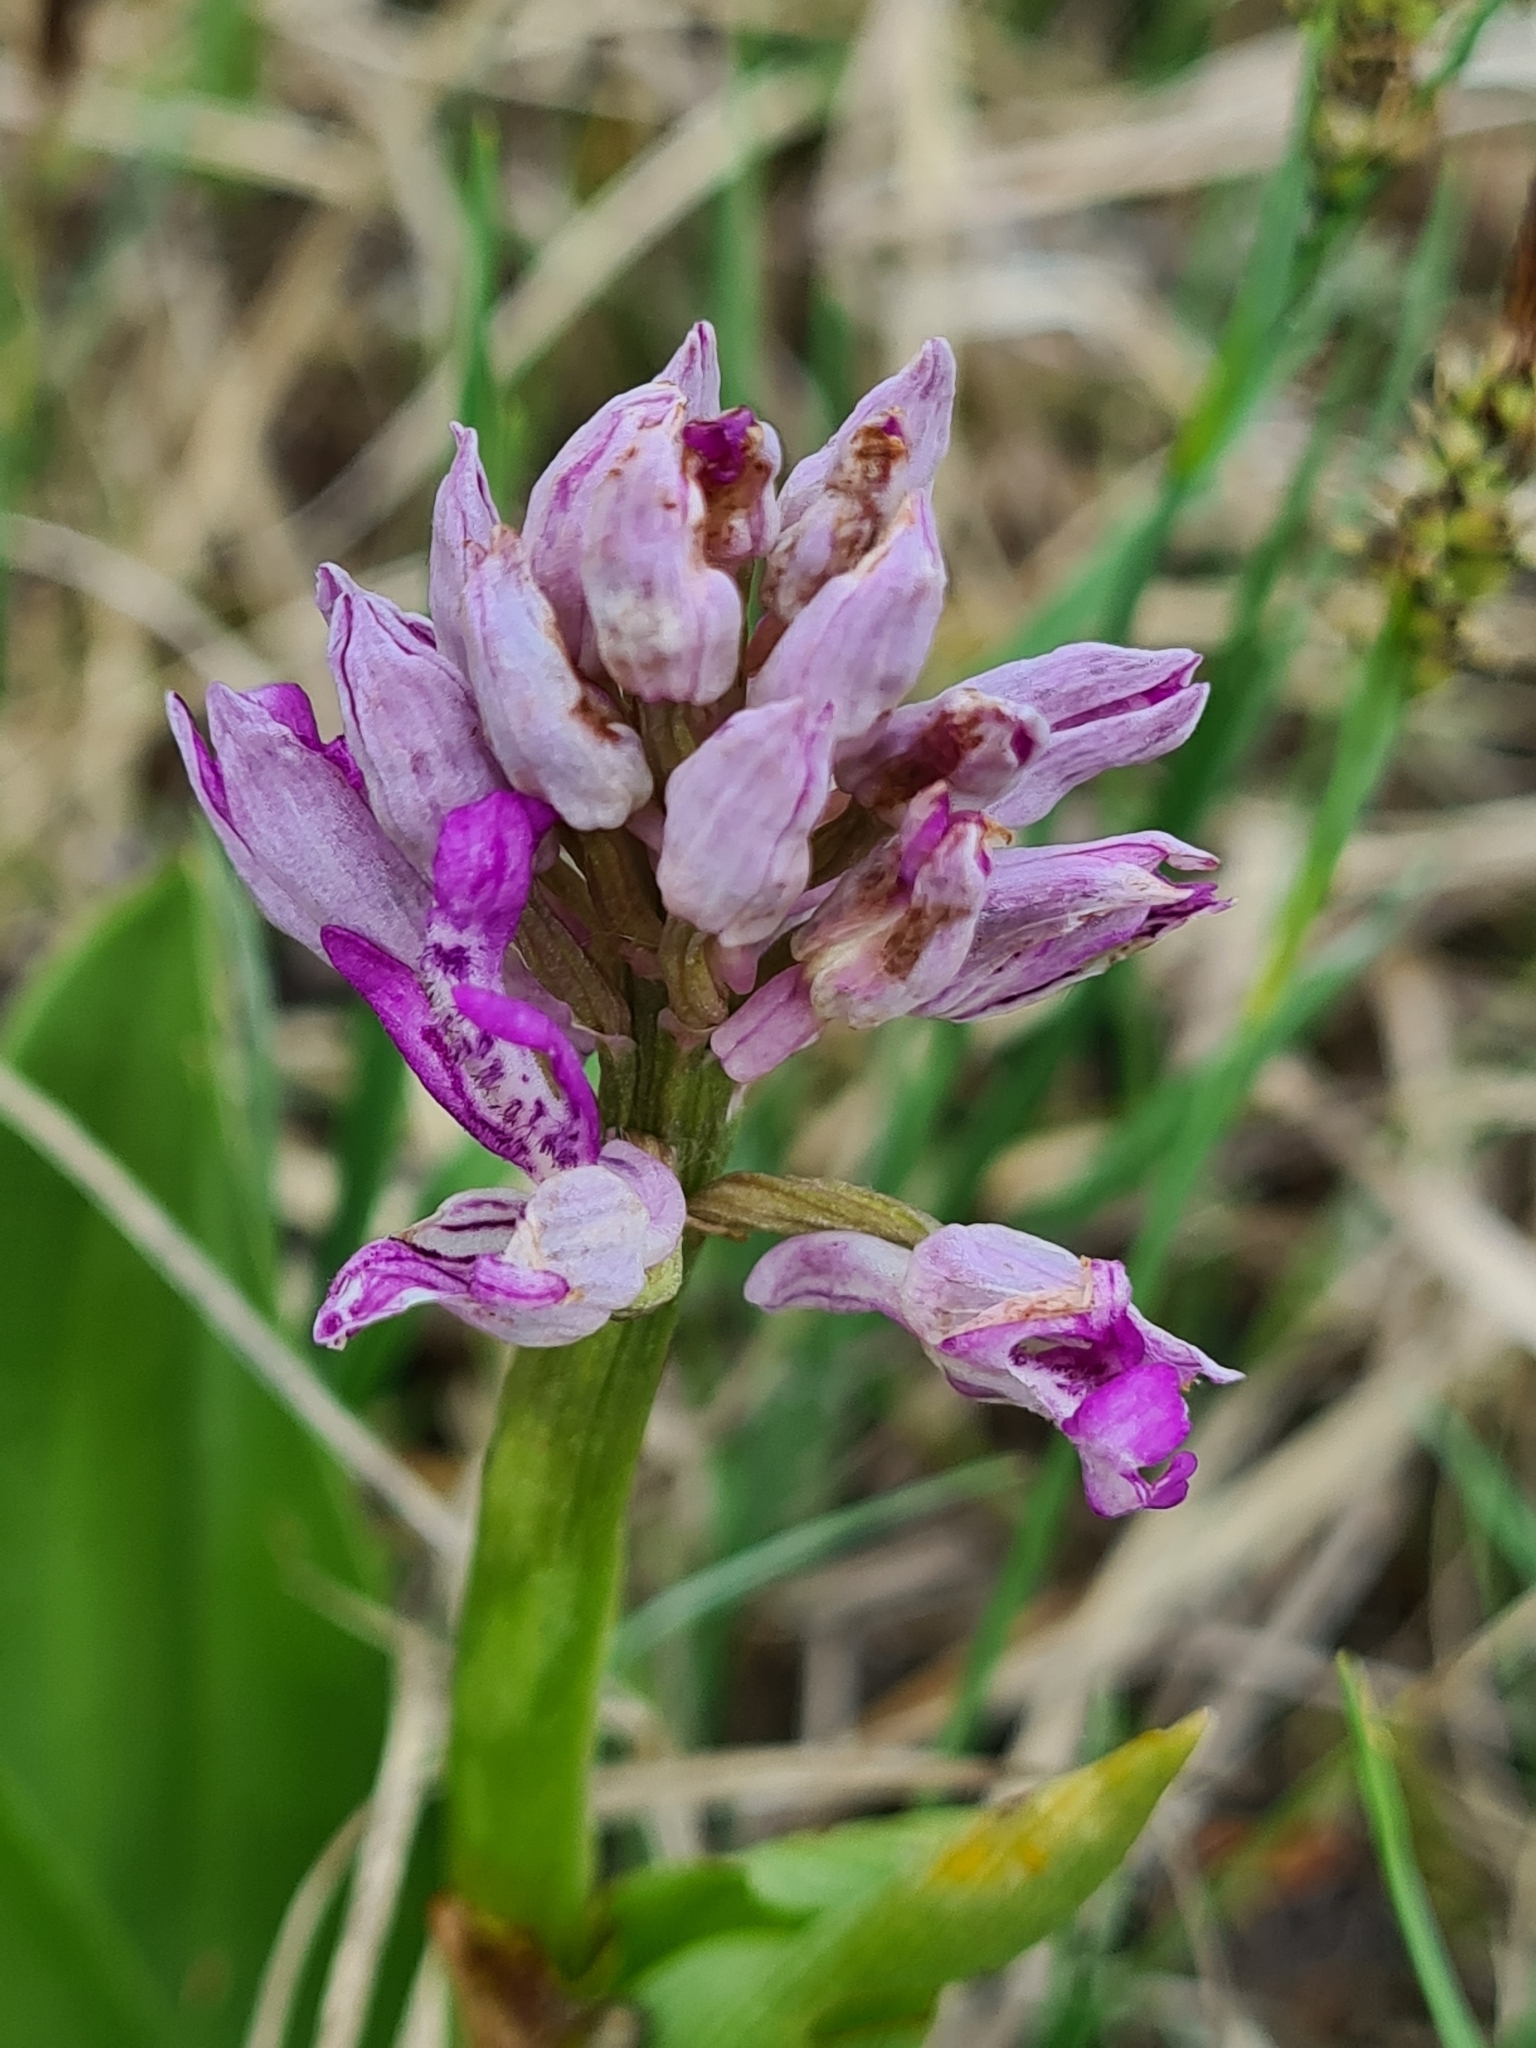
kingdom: Plantae
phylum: Tracheophyta
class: Liliopsida
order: Asparagales
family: Orchidaceae
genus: Orchis
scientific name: Orchis militaris
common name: Military orchid
